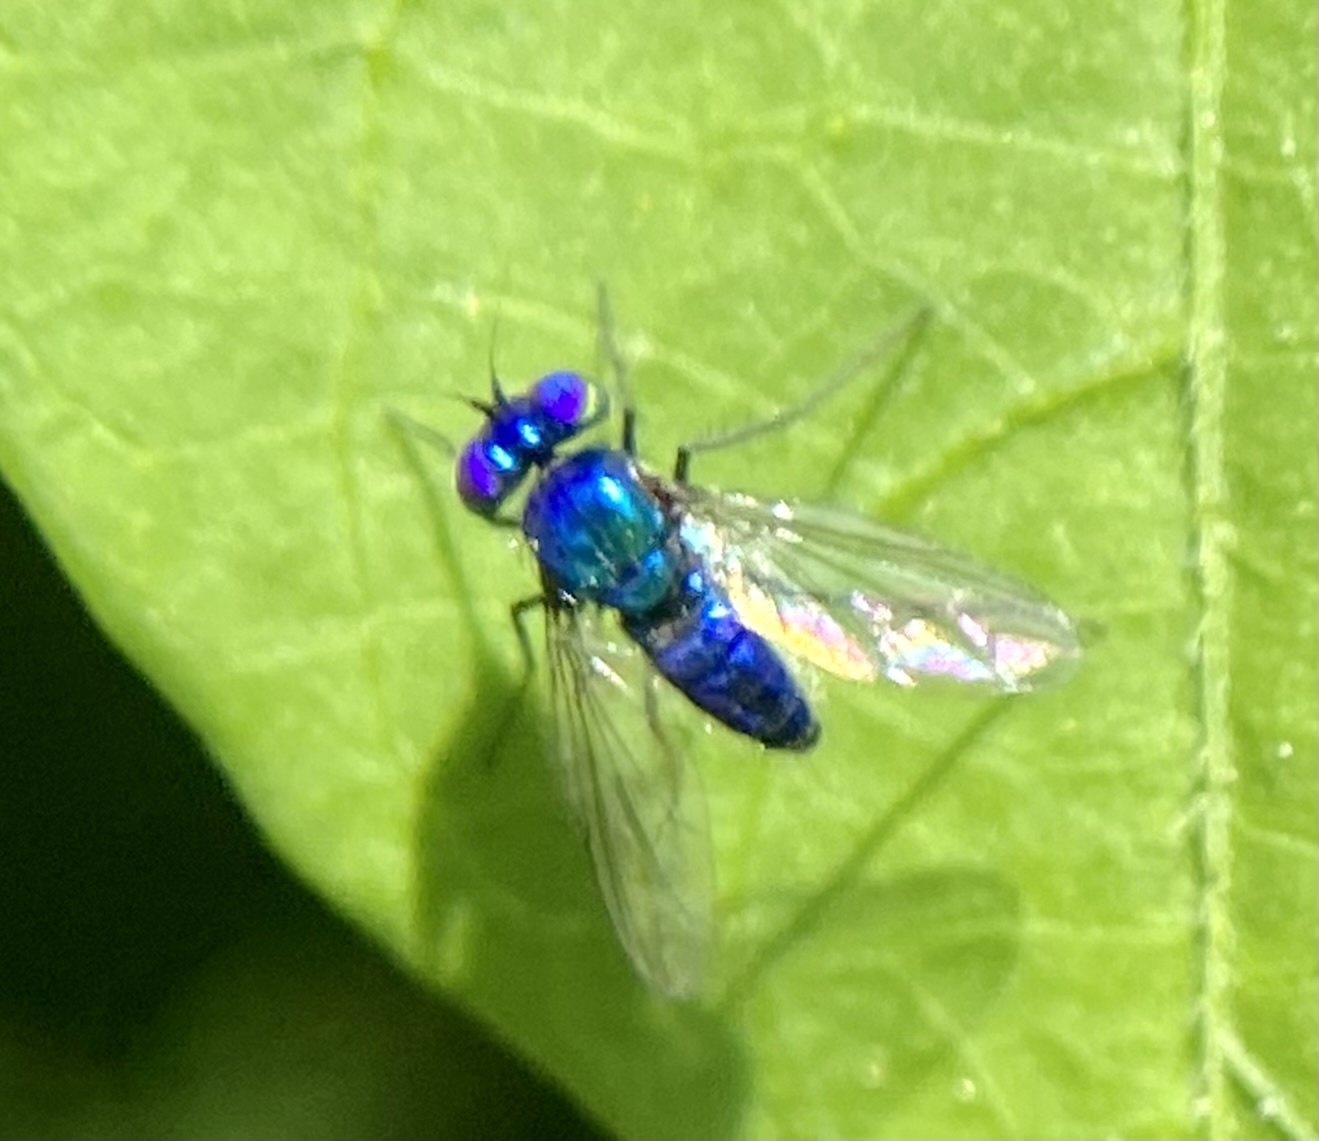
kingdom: Animalia
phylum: Arthropoda
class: Insecta
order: Diptera
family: Dolichopodidae
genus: Condylostylus
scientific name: Condylostylus mundus
